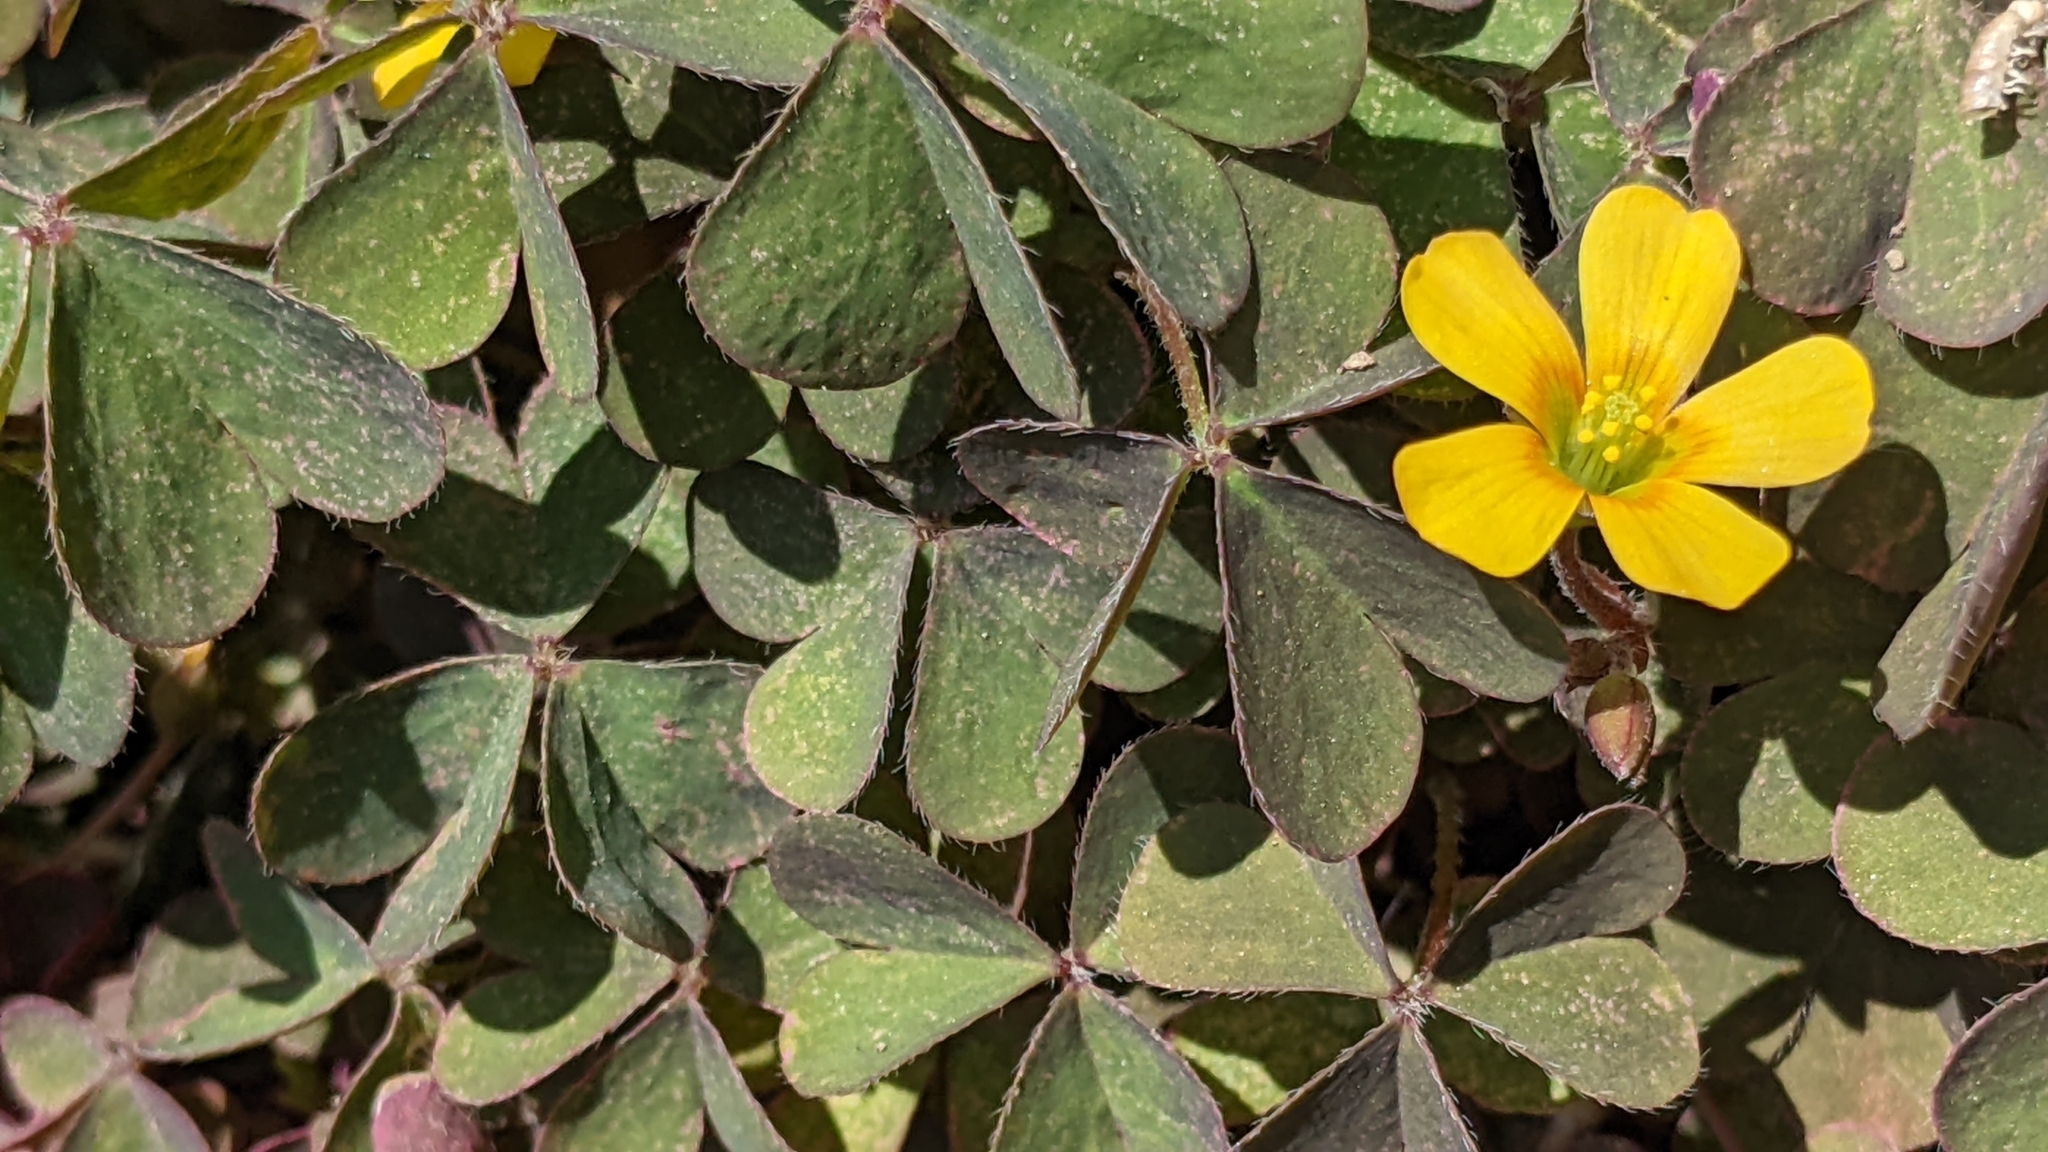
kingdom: Plantae
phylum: Tracheophyta
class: Magnoliopsida
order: Oxalidales
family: Oxalidaceae
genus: Oxalis
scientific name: Oxalis corniculata
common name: Procumbent yellow-sorrel
